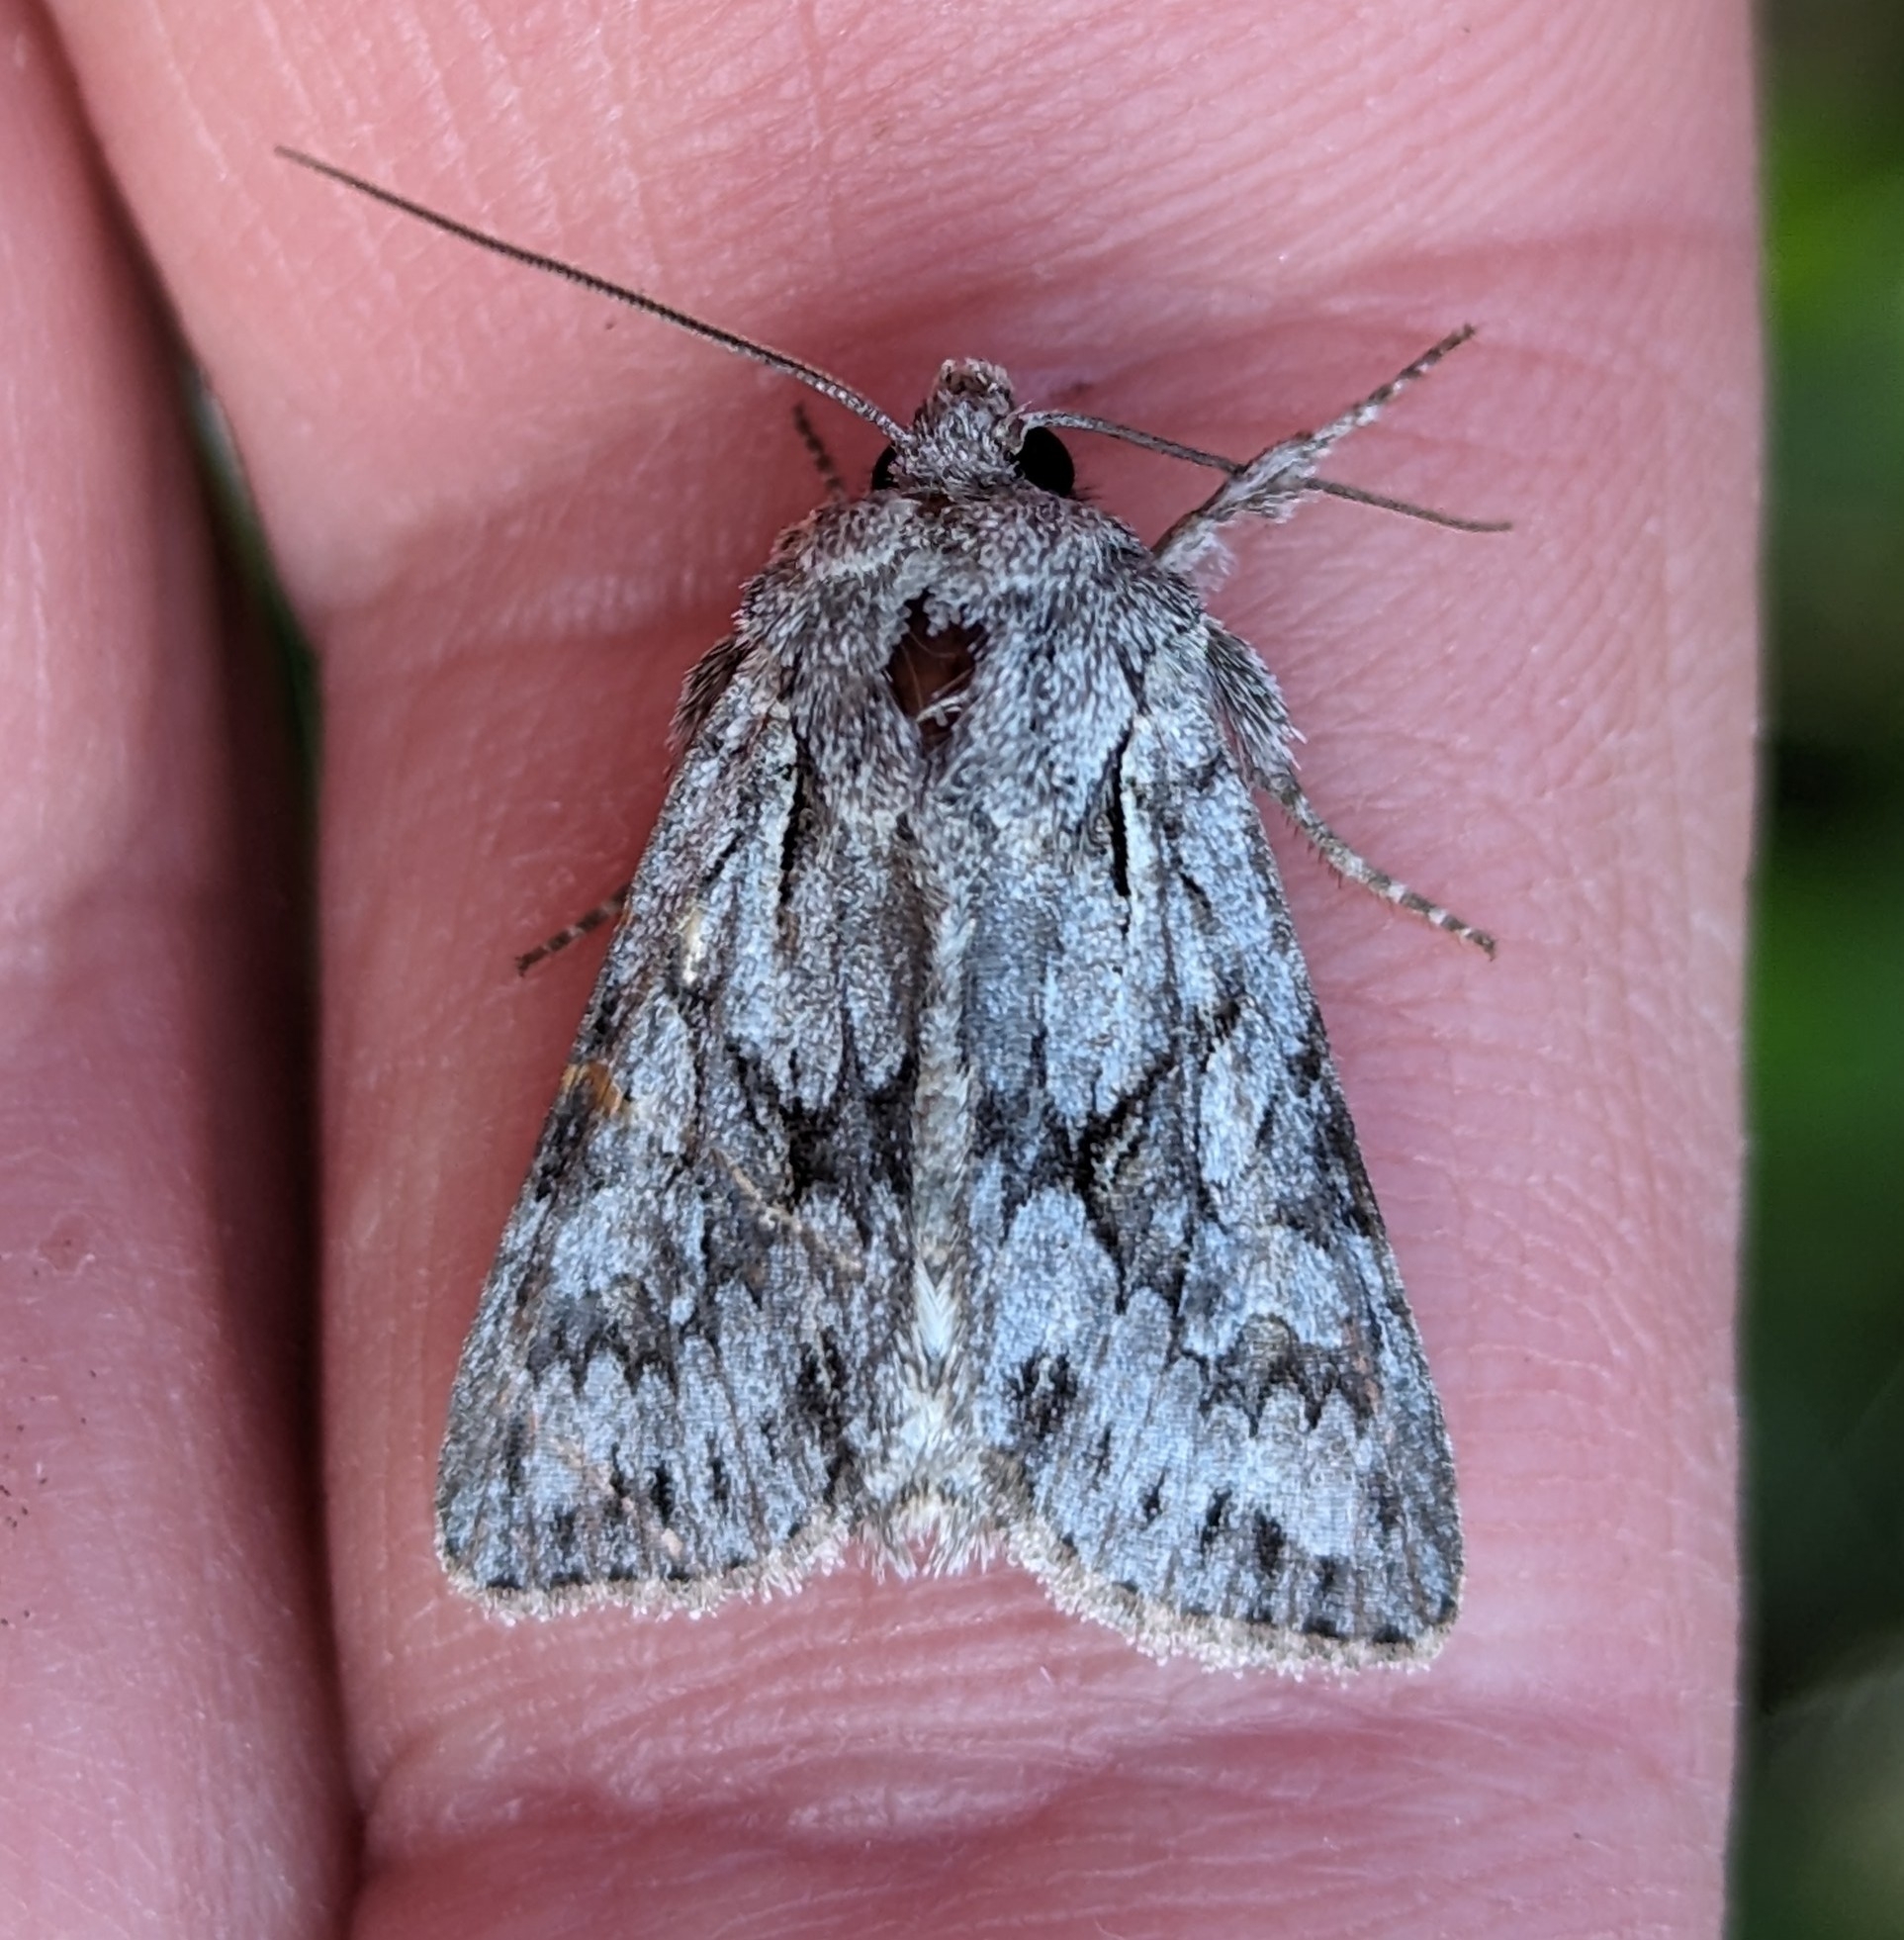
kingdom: Animalia
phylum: Arthropoda
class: Insecta
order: Lepidoptera
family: Noctuidae
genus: Lacinipolia
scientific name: Lacinipolia patalis
